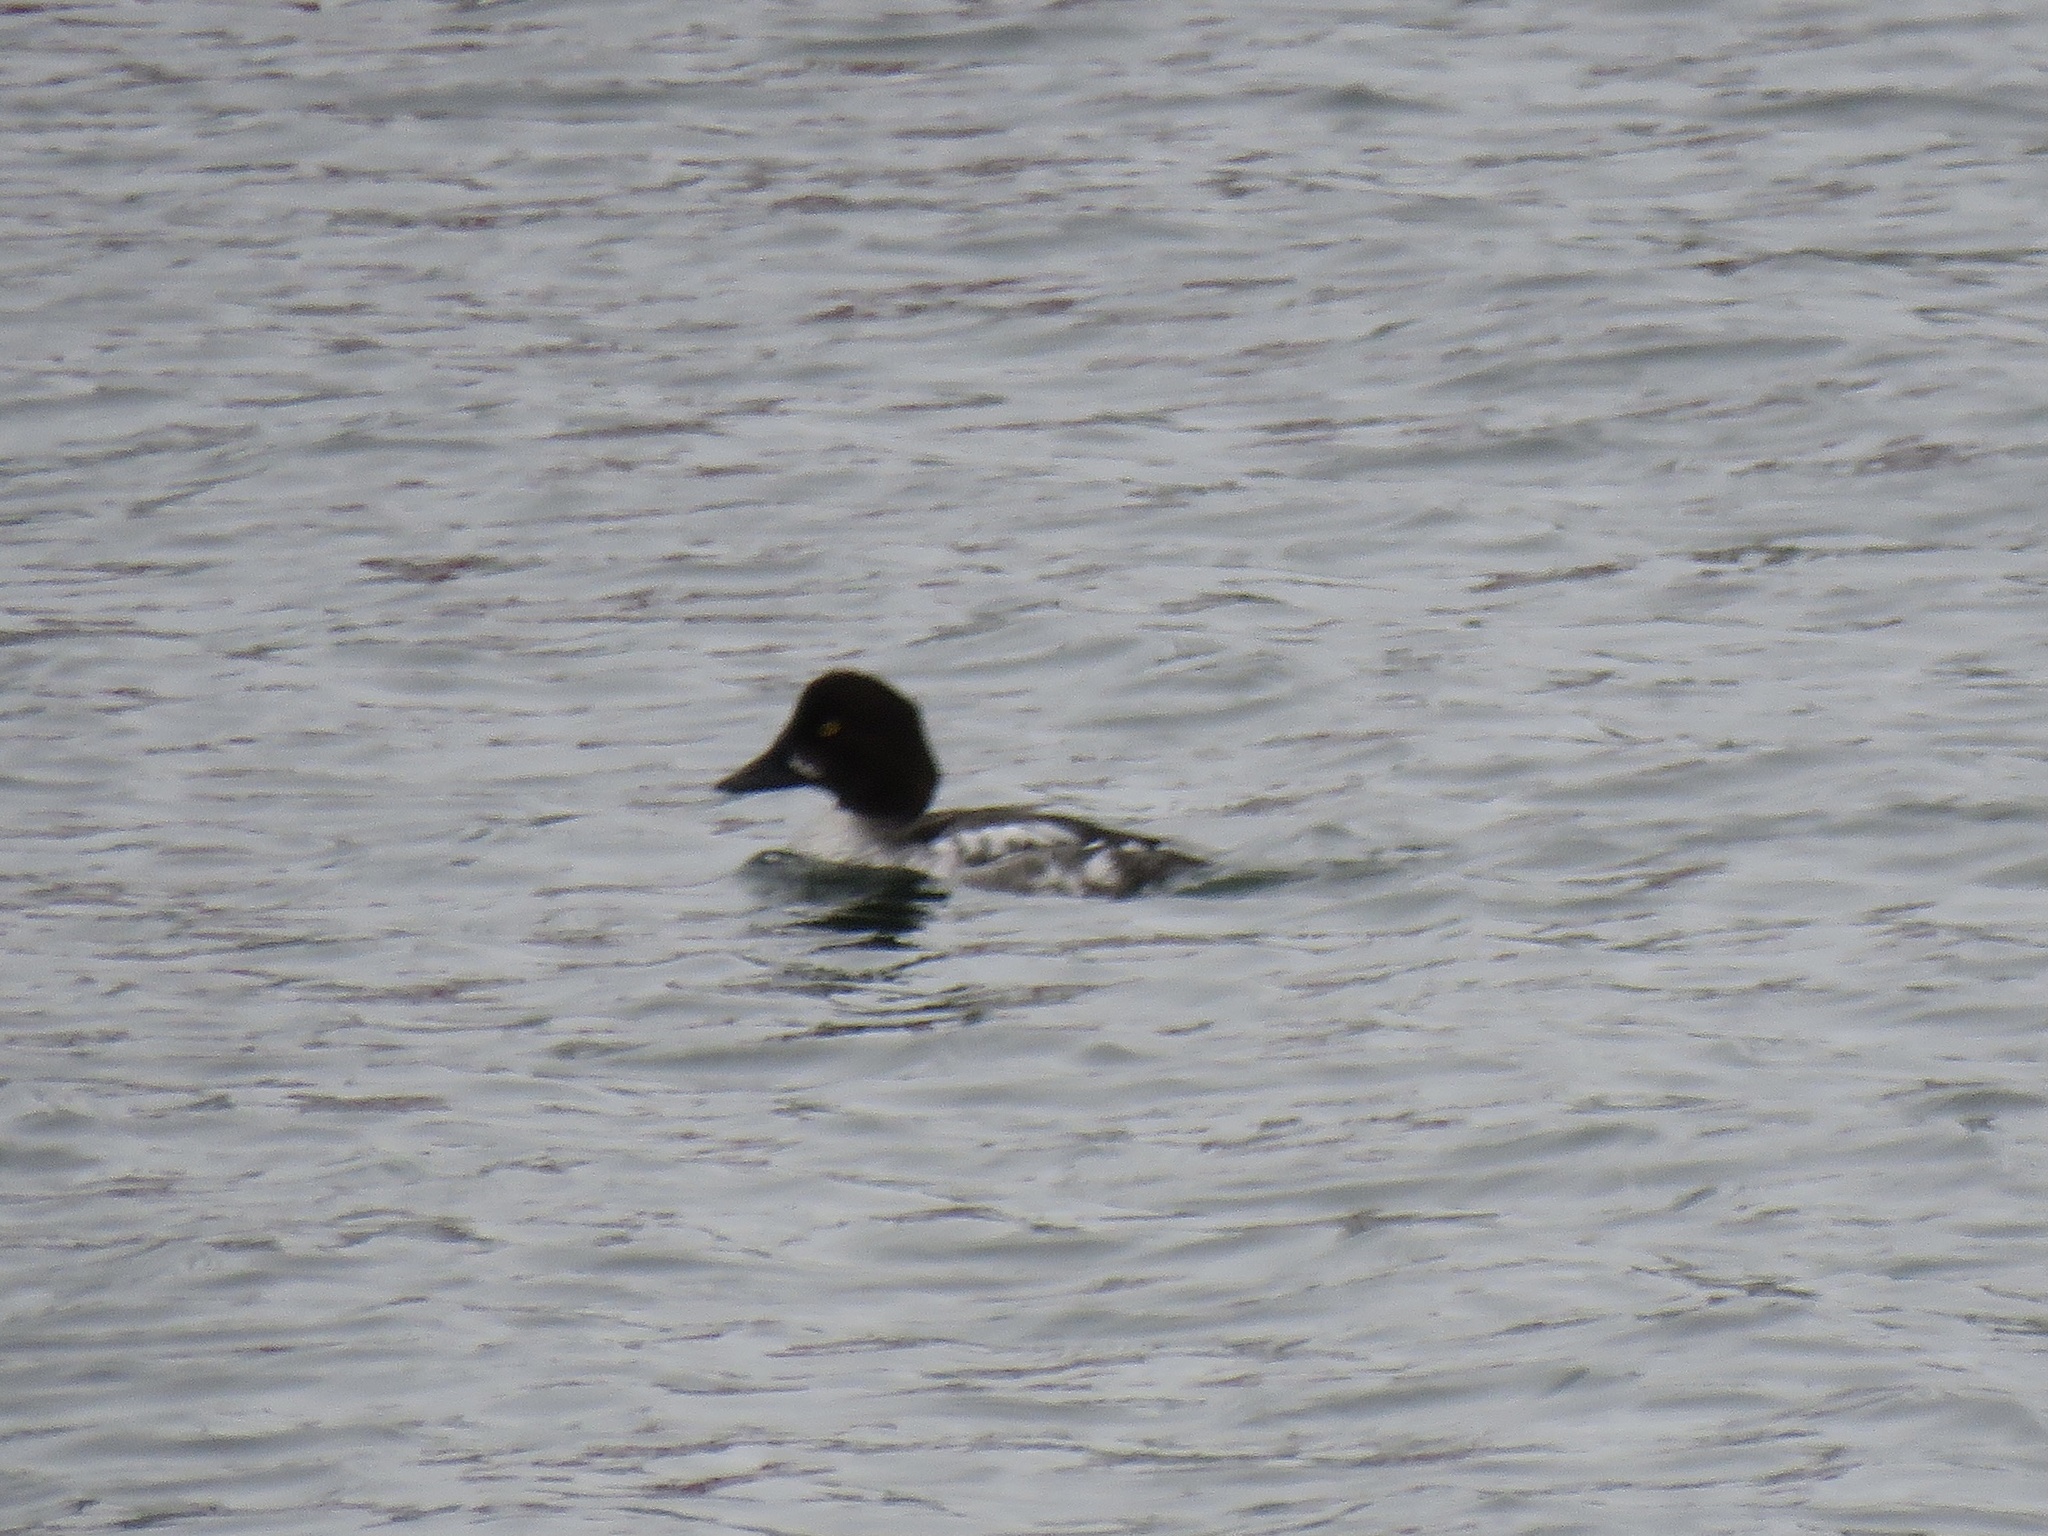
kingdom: Animalia
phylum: Chordata
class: Aves
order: Anseriformes
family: Anatidae
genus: Bucephala
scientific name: Bucephala clangula
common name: Common goldeneye
